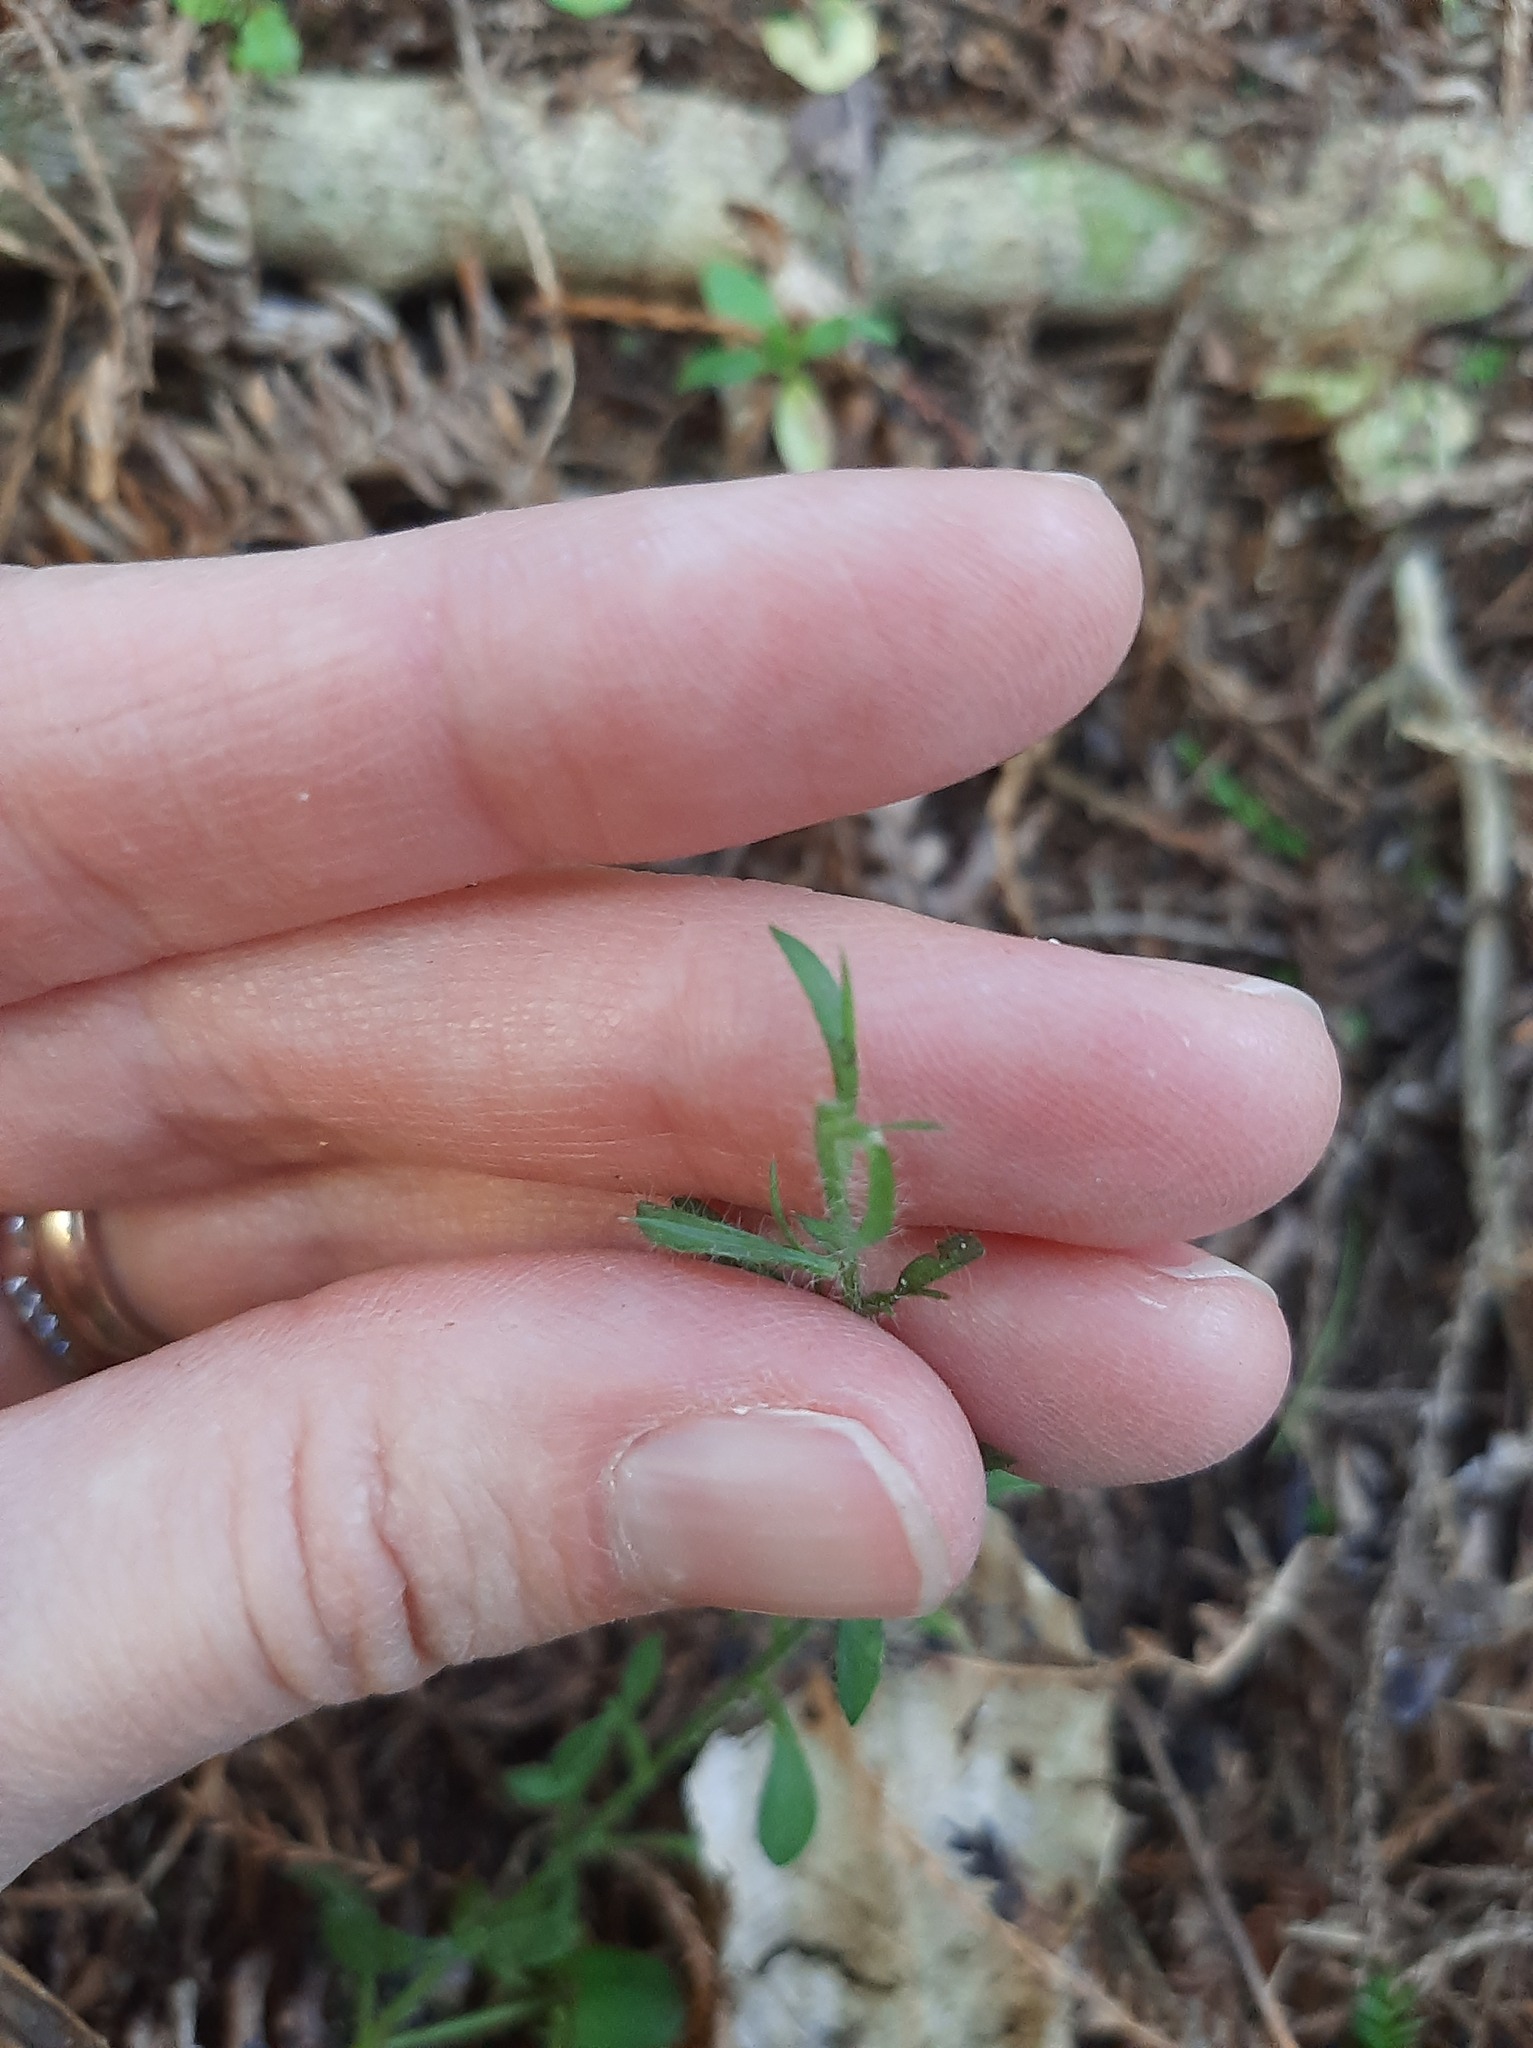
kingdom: Plantae
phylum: Tracheophyta
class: Magnoliopsida
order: Fabales
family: Fabaceae
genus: Ulex
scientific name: Ulex europaeus
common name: Common gorse
